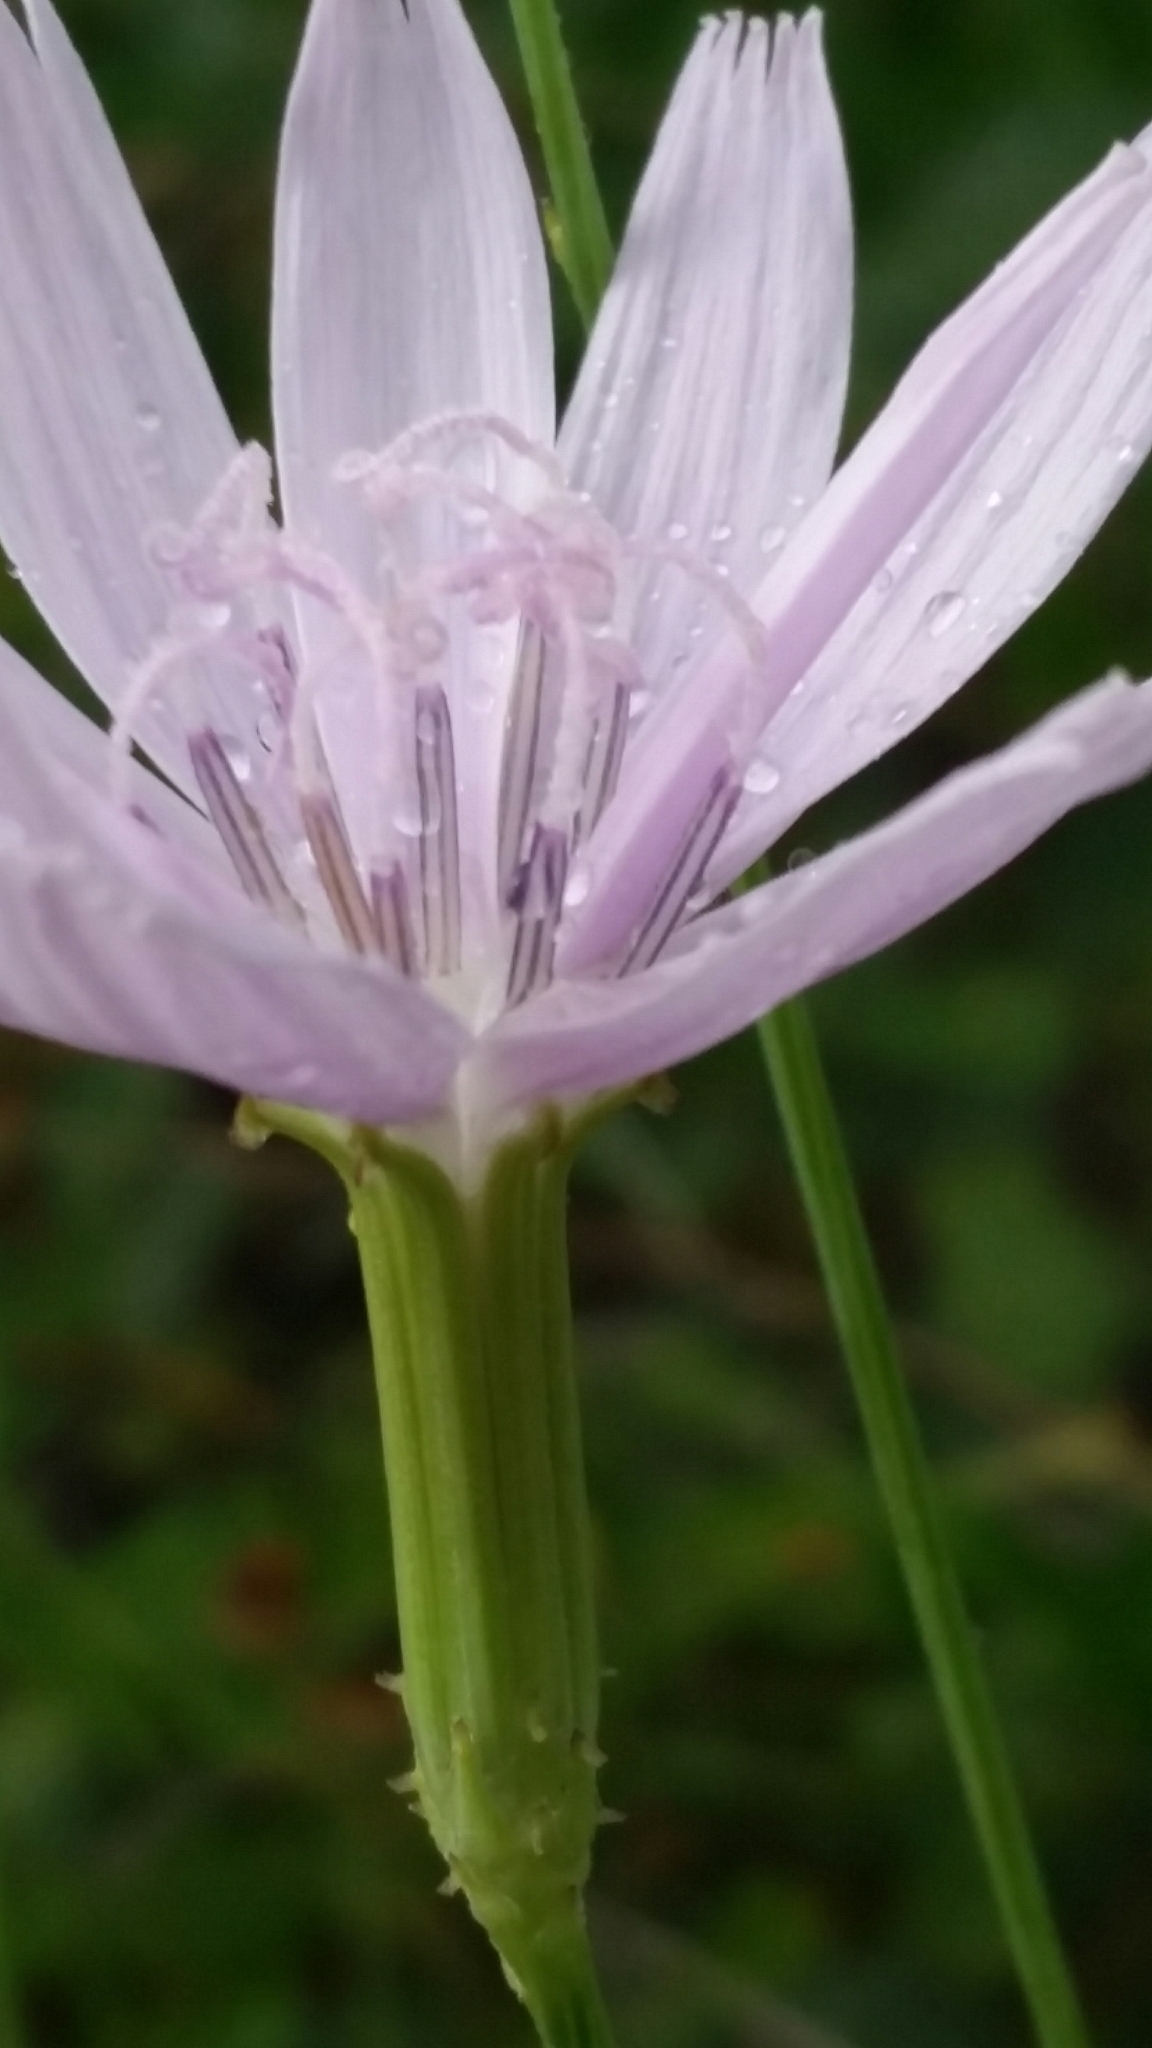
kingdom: Plantae
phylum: Tracheophyta
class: Magnoliopsida
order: Asterales
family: Asteraceae
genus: Lygodesmia
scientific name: Lygodesmia aphylla
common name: Rose-rush
